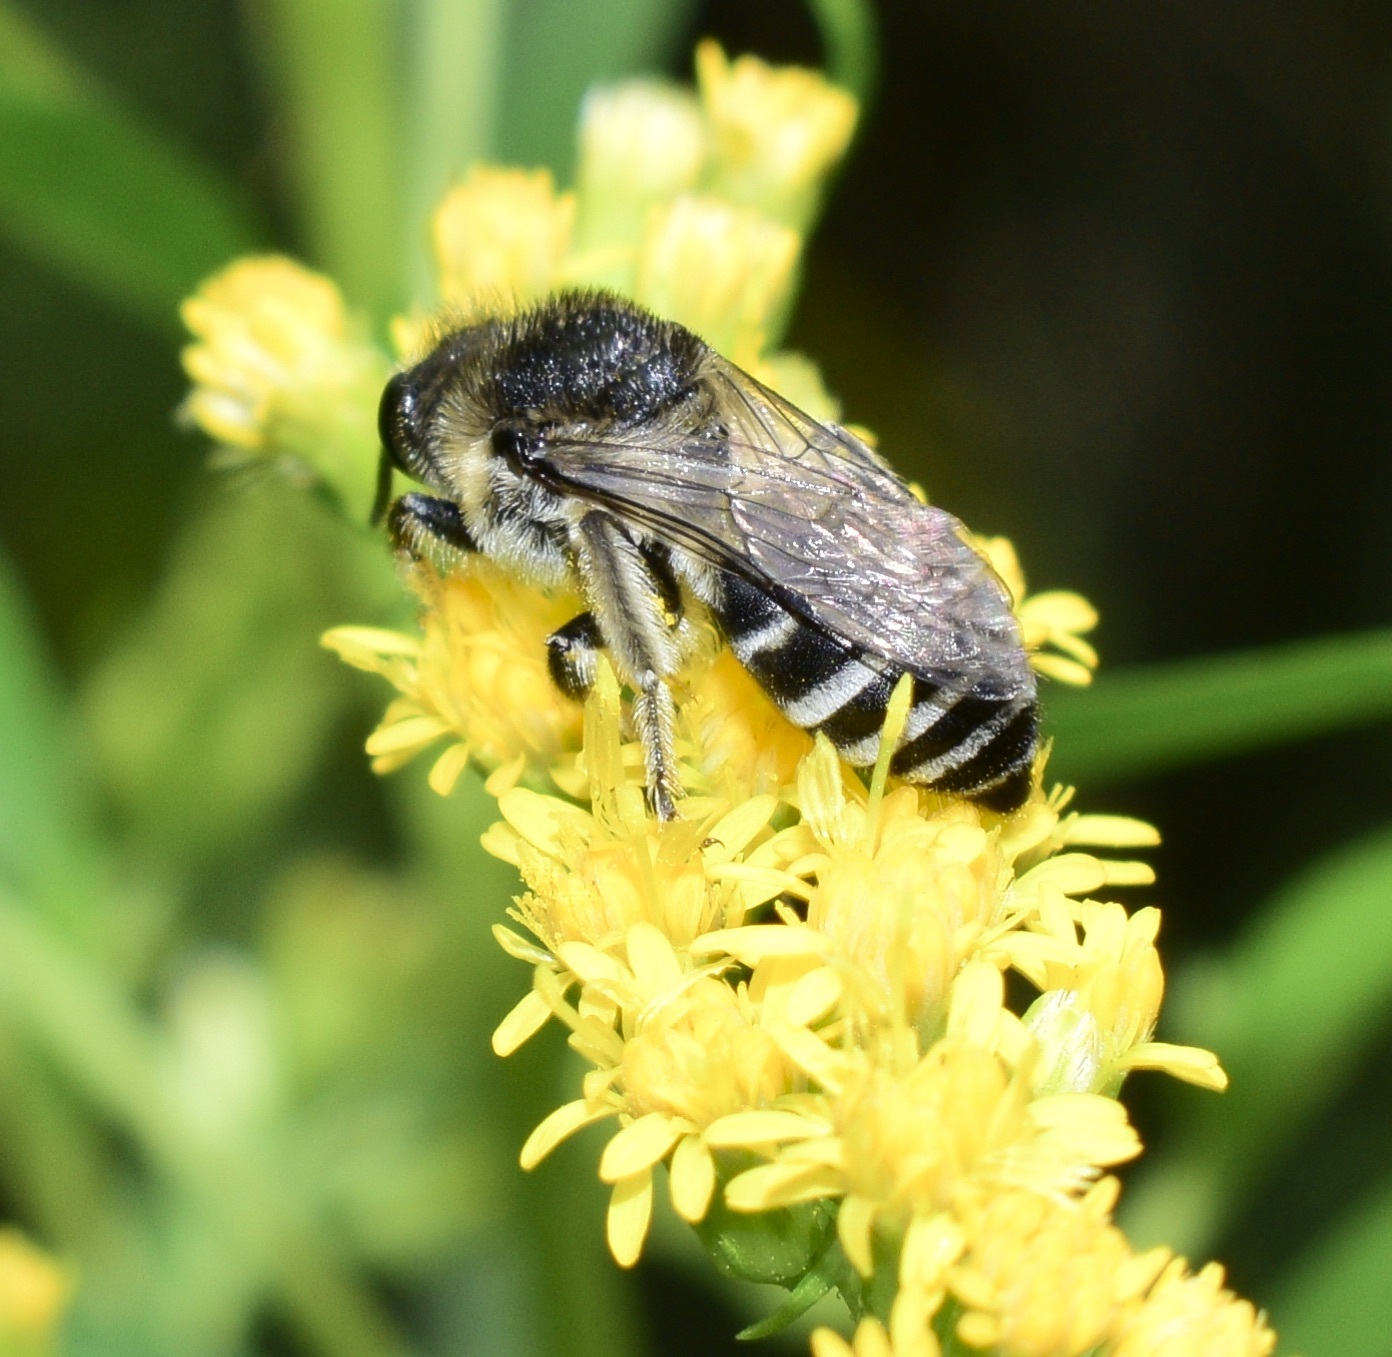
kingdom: Animalia
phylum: Arthropoda
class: Insecta
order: Hymenoptera
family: Colletidae
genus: Colletes
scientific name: Colletes simulans
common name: Spine-shouldered cellophane bee
